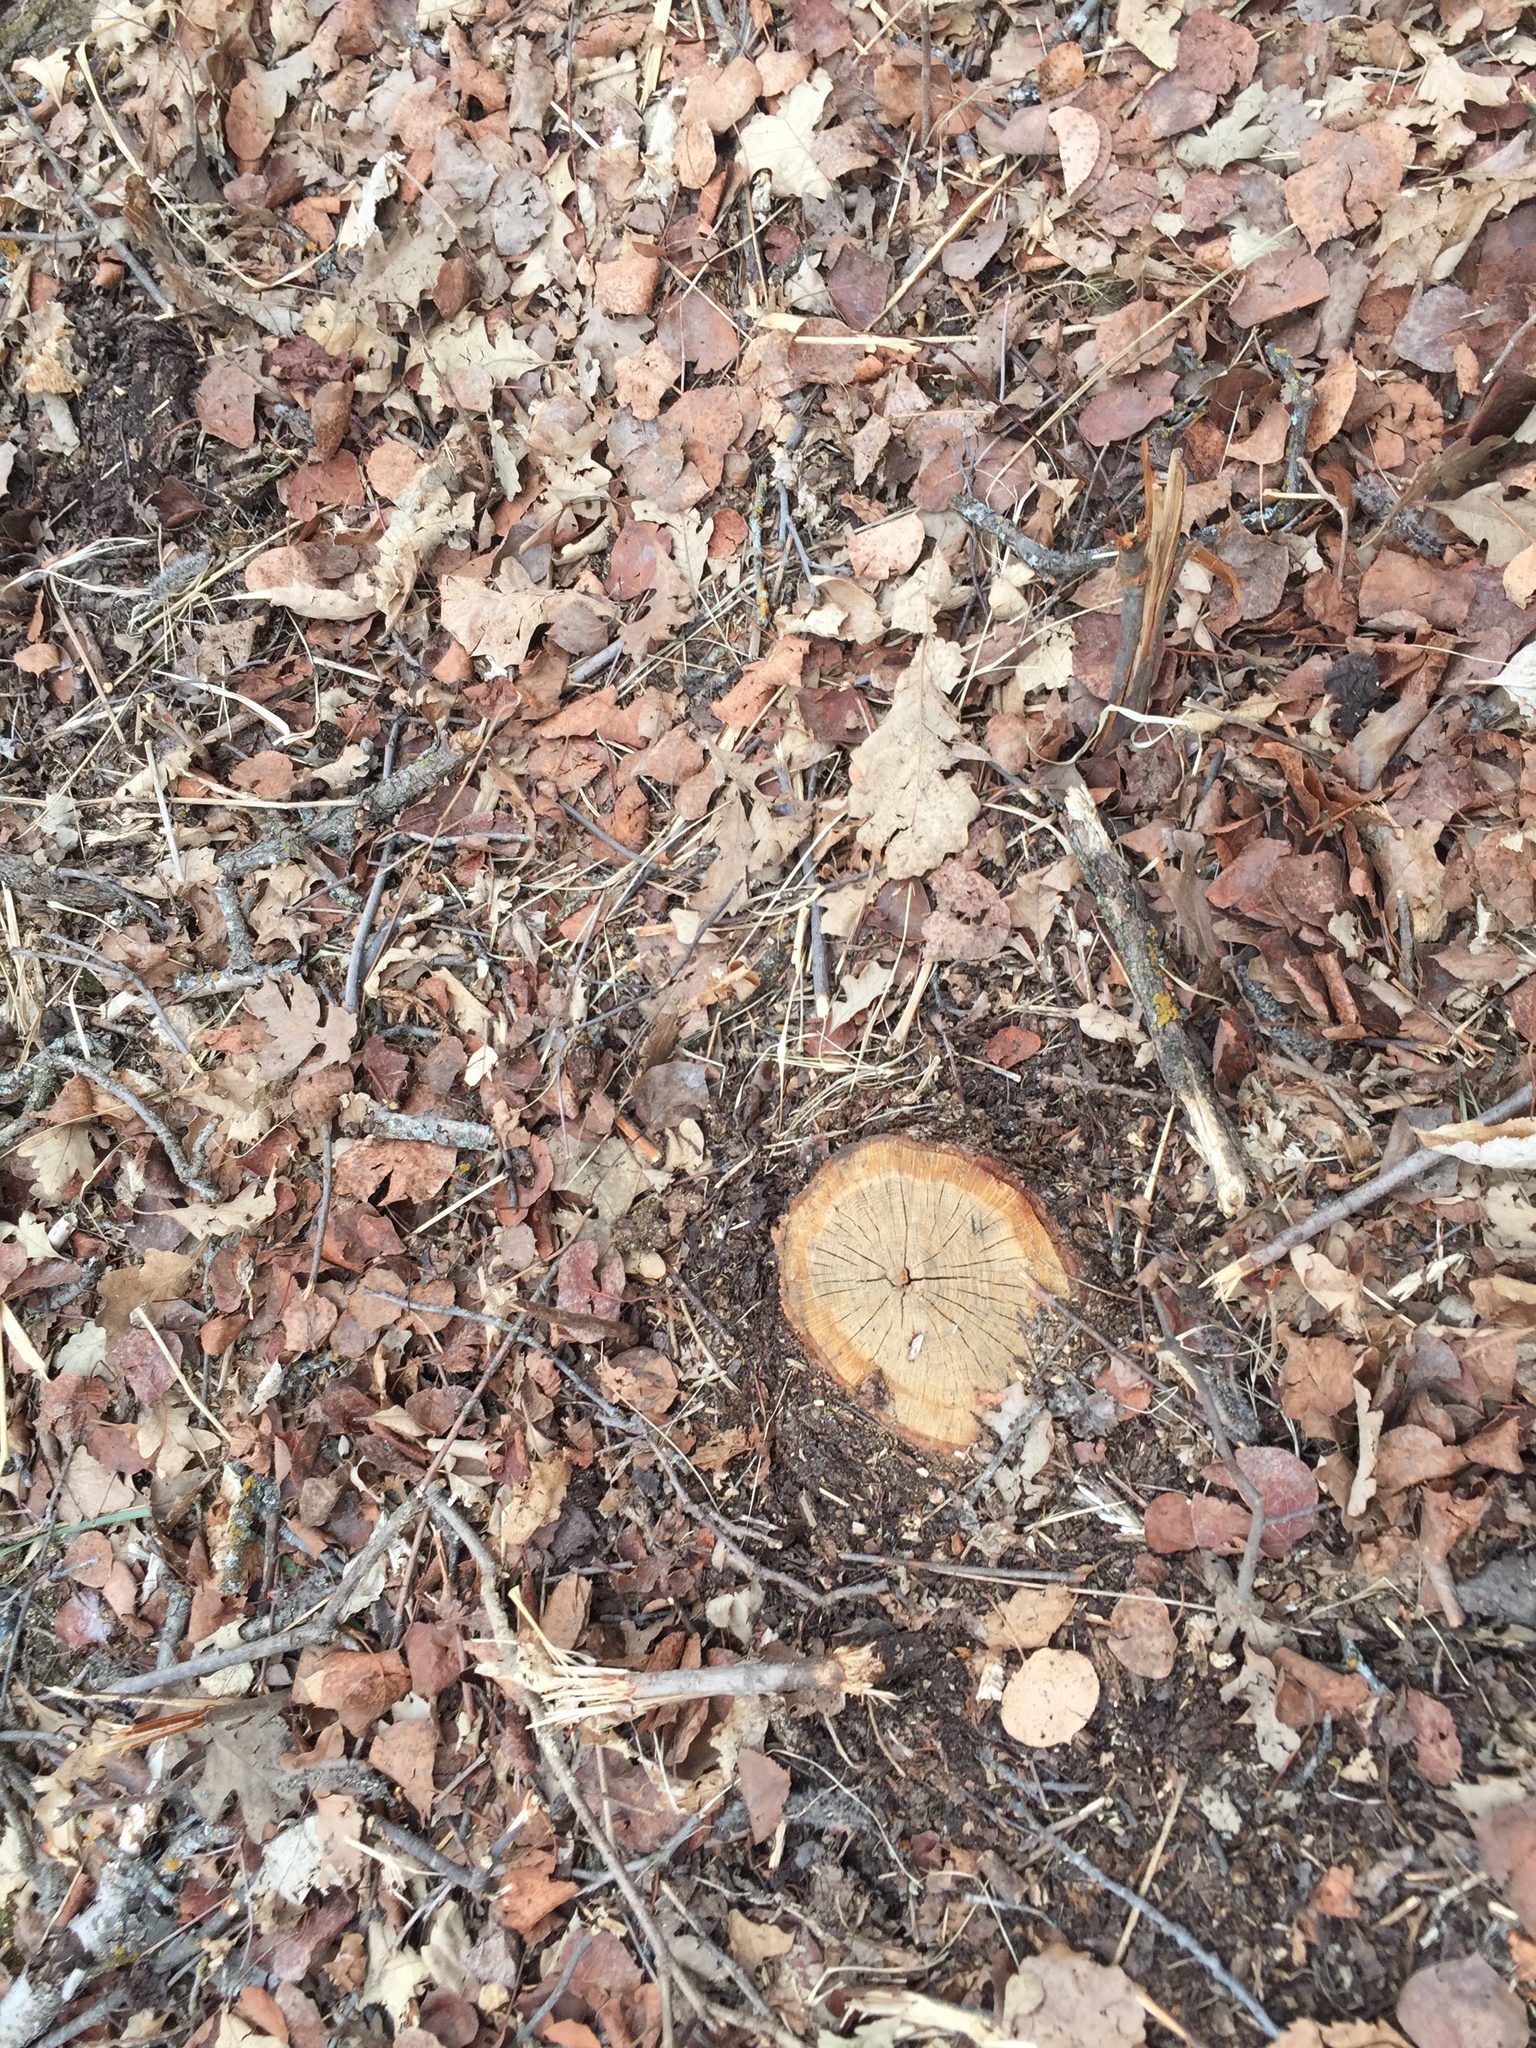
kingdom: Plantae
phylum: Tracheophyta
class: Magnoliopsida
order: Fagales
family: Fagaceae
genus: Quercus
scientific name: Quercus macrocarpa
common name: Bur oak
